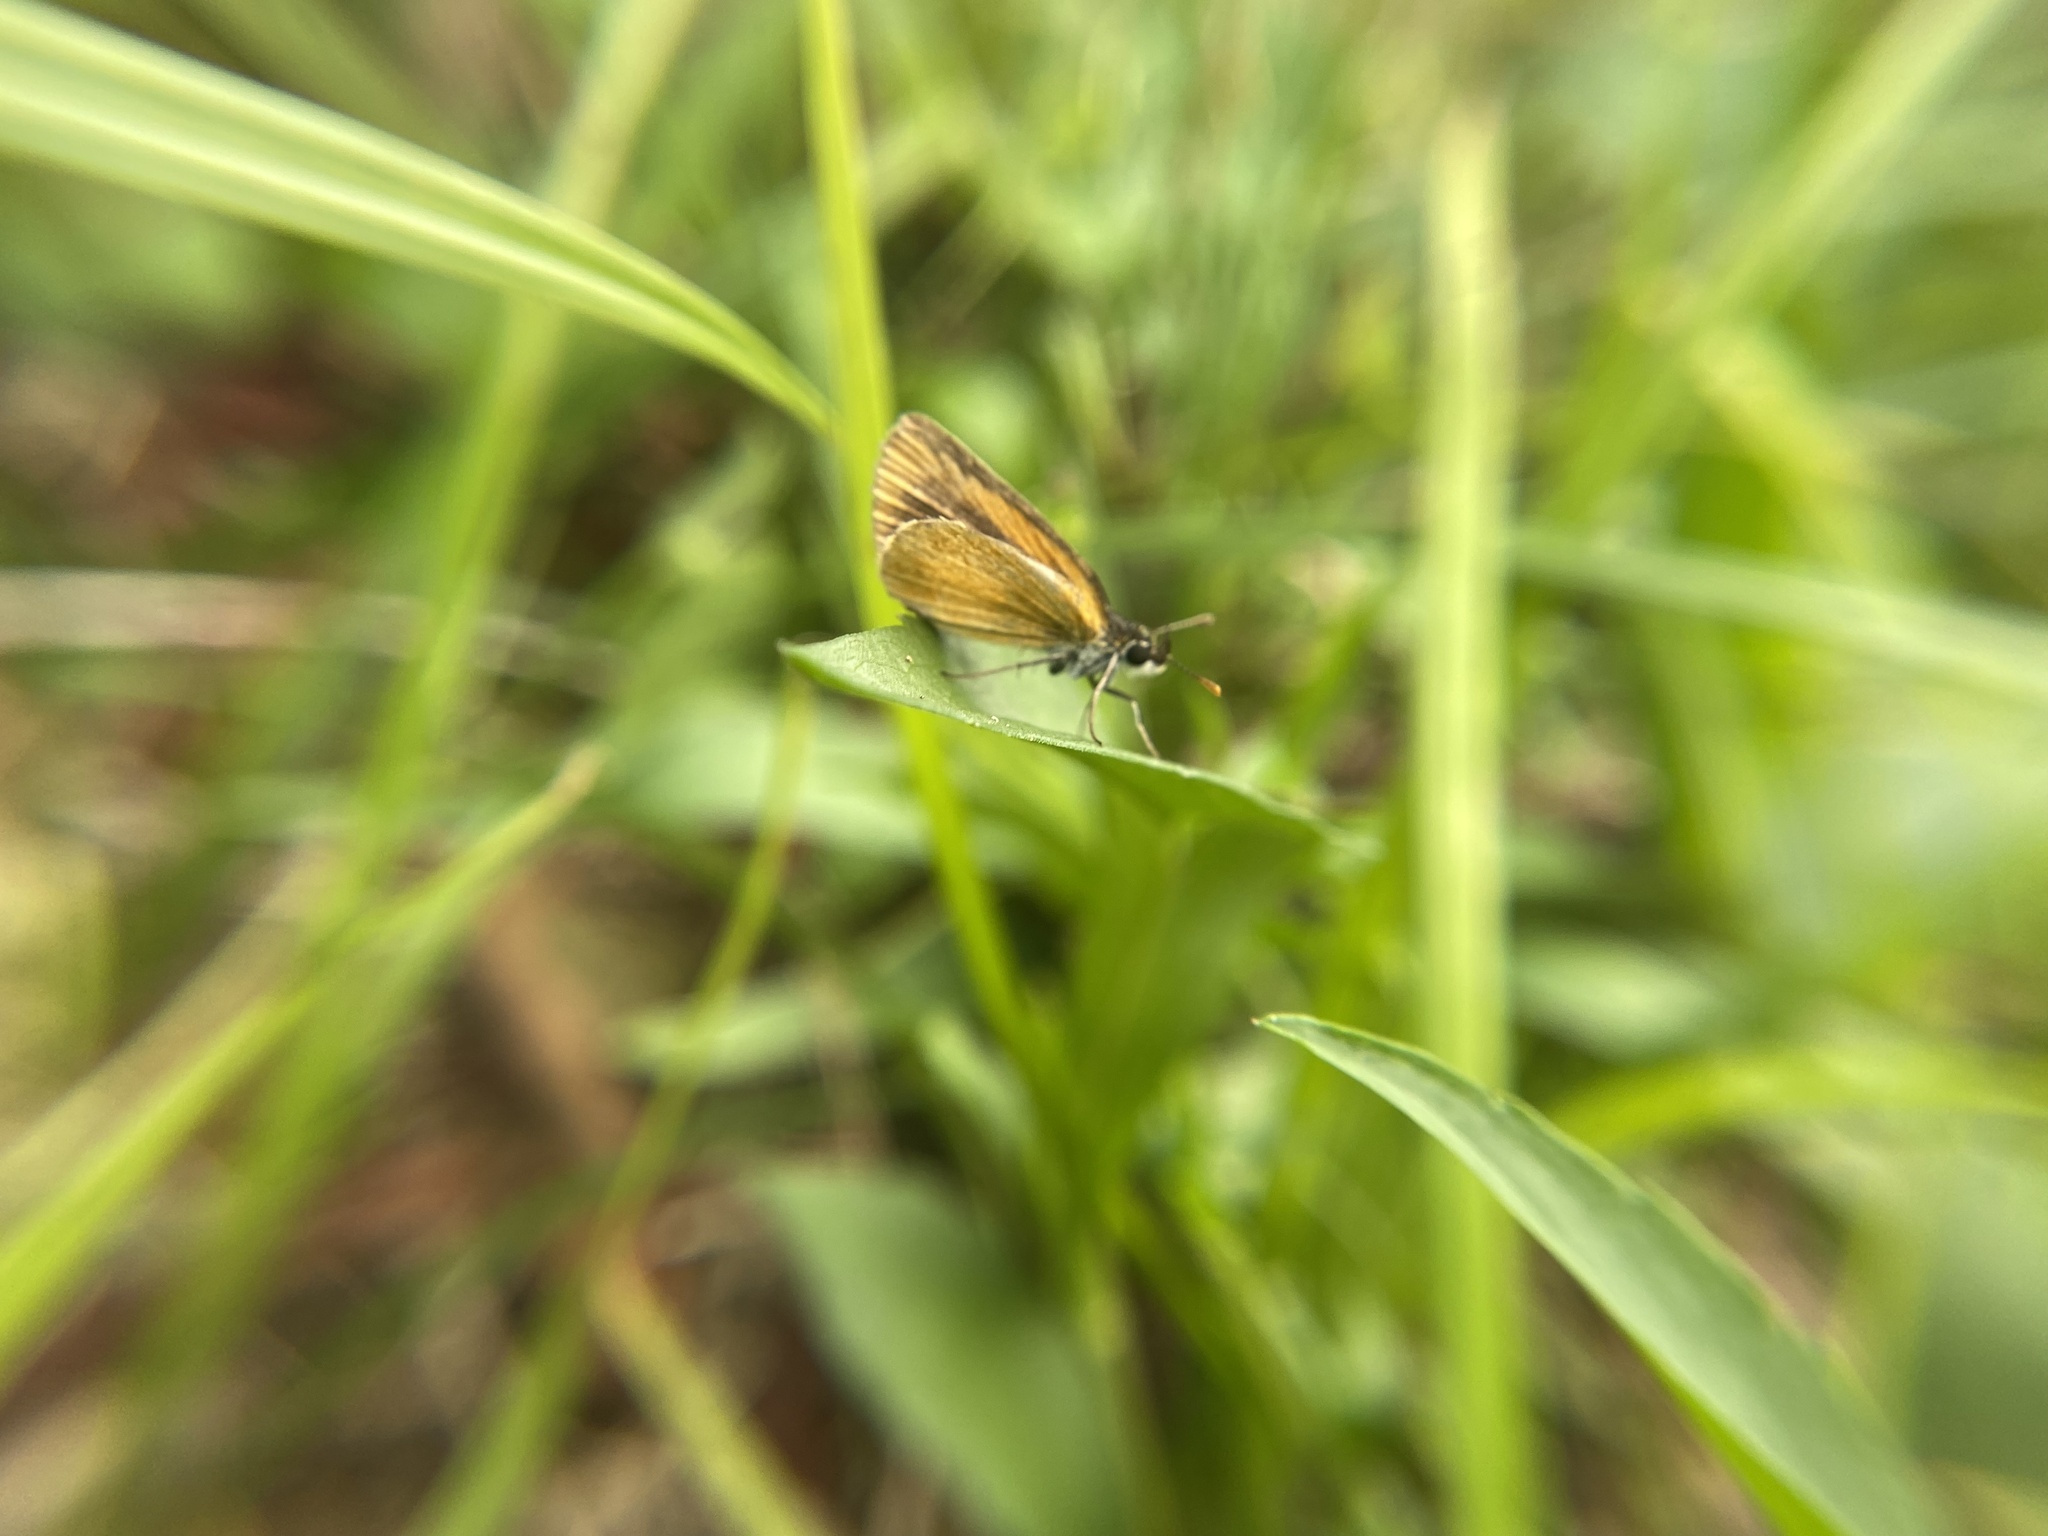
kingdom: Animalia
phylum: Arthropoda
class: Insecta
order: Lepidoptera
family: Hesperiidae
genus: Ancyloxypha
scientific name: Ancyloxypha numitor
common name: Least skipper
